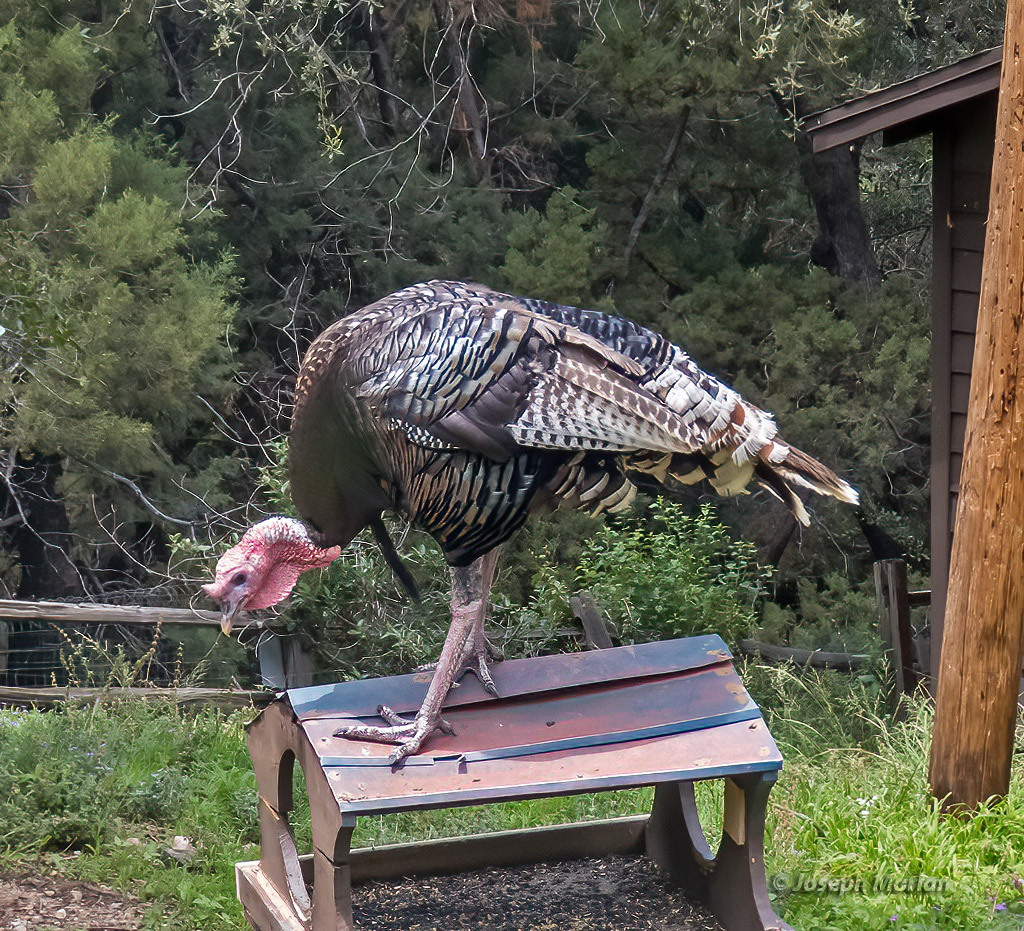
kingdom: Animalia
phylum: Chordata
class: Aves
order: Galliformes
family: Phasianidae
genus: Meleagris
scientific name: Meleagris gallopavo
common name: Wild turkey
